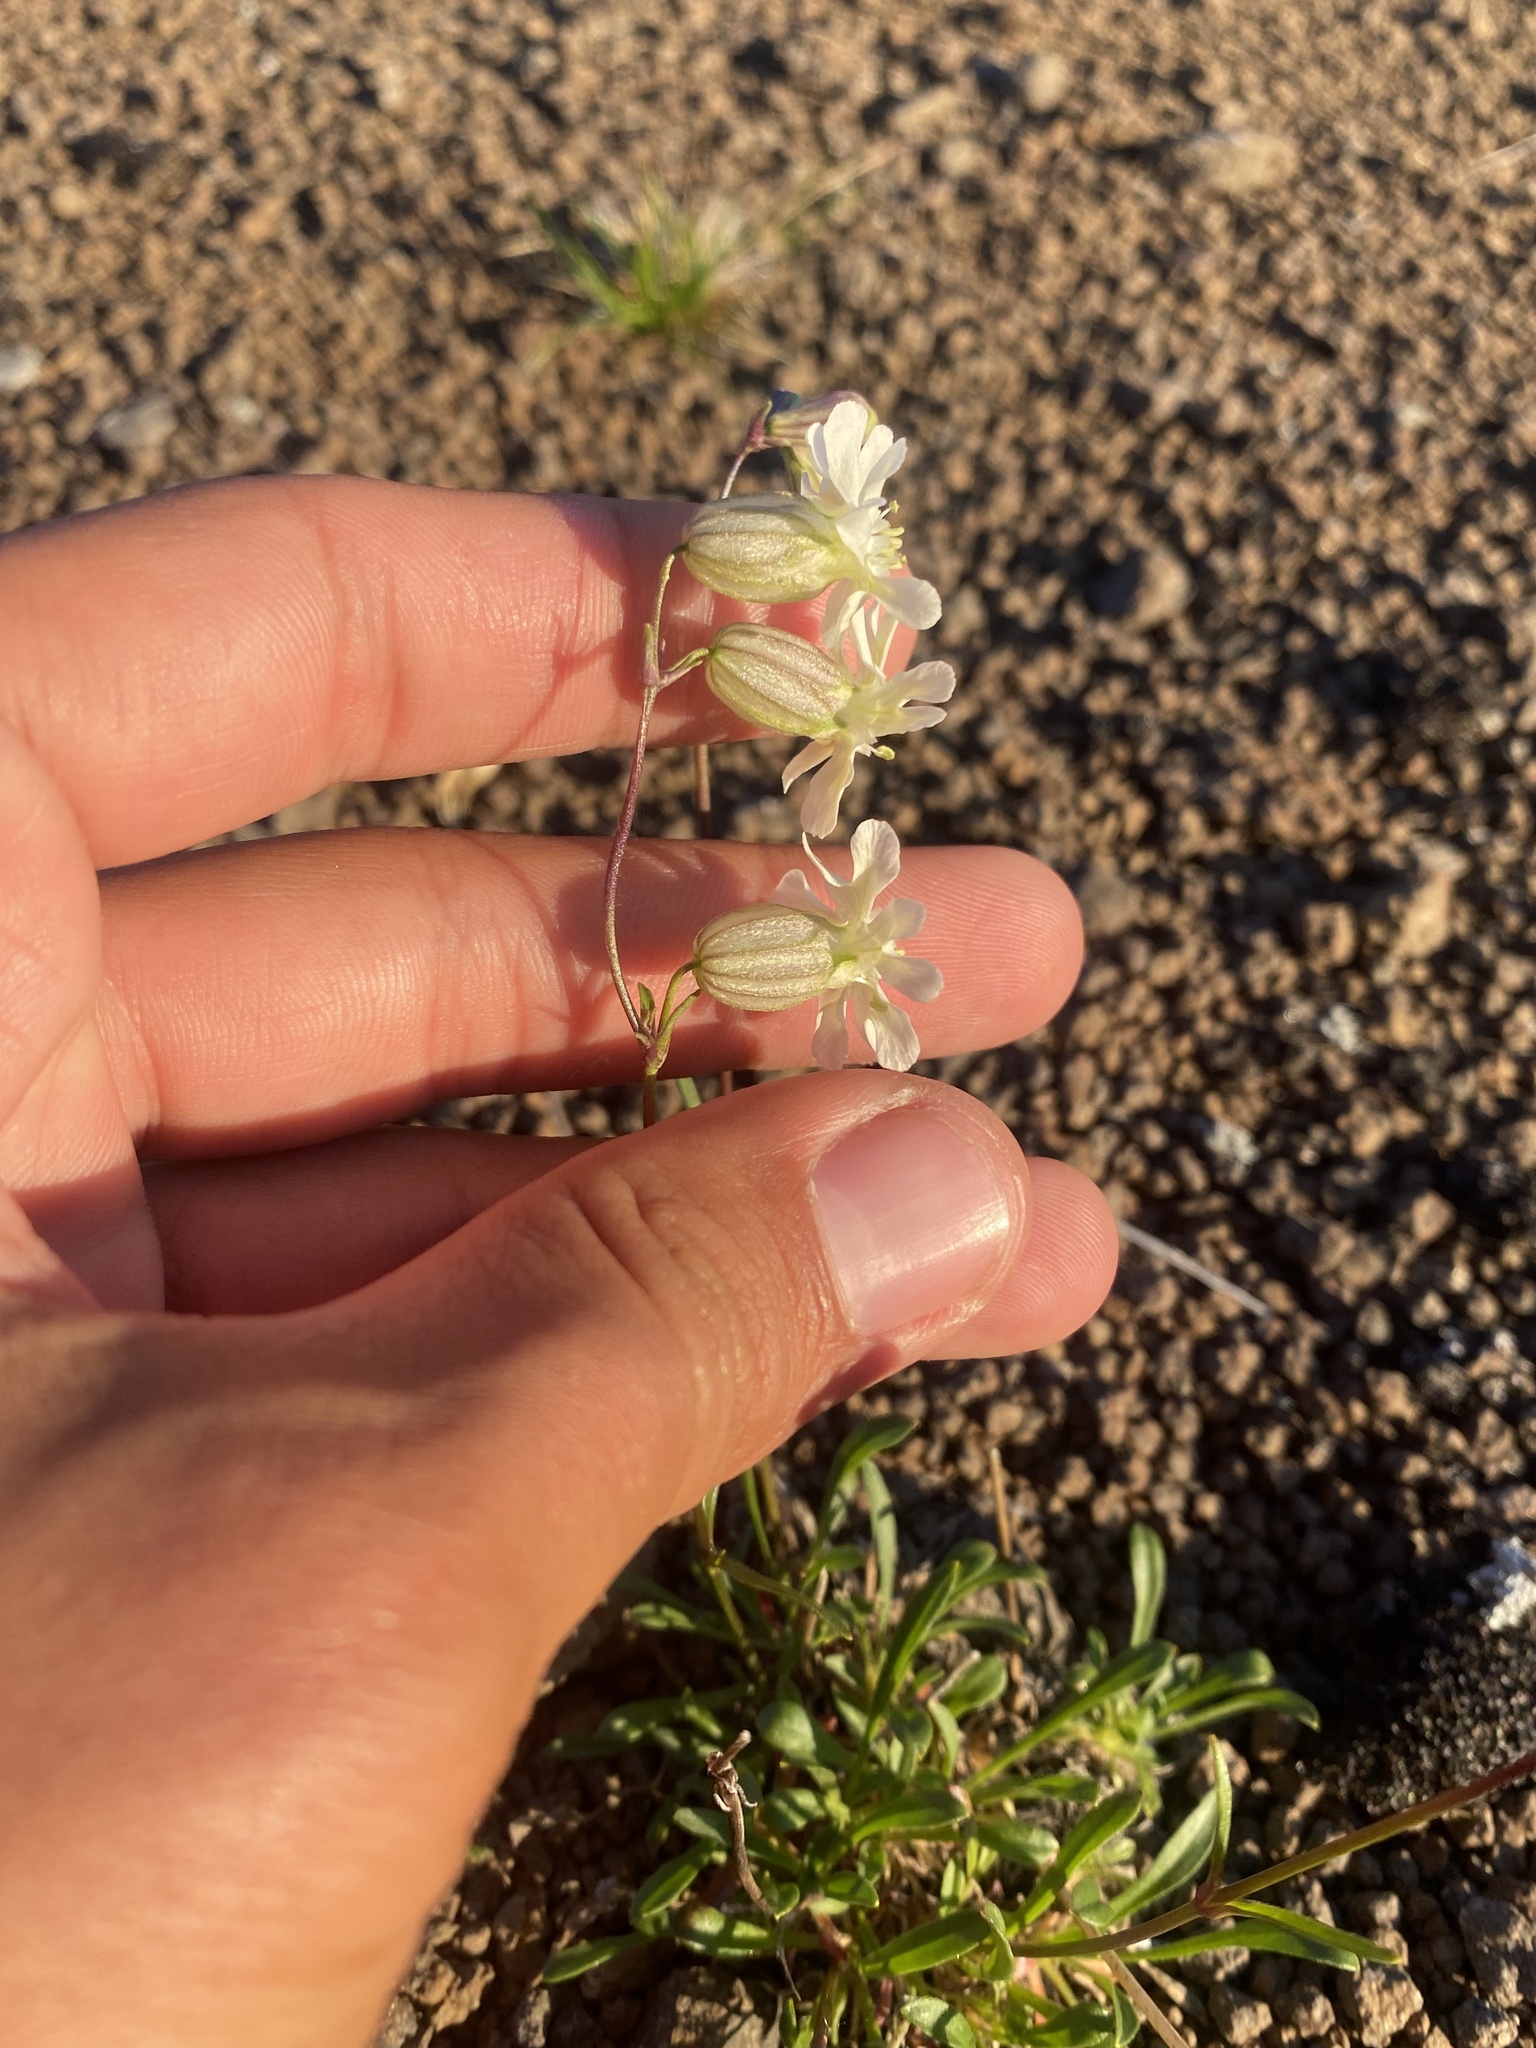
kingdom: Plantae
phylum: Tracheophyta
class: Magnoliopsida
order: Caryophyllales
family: Caryophyllaceae
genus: Silene
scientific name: Silene chamarensis
